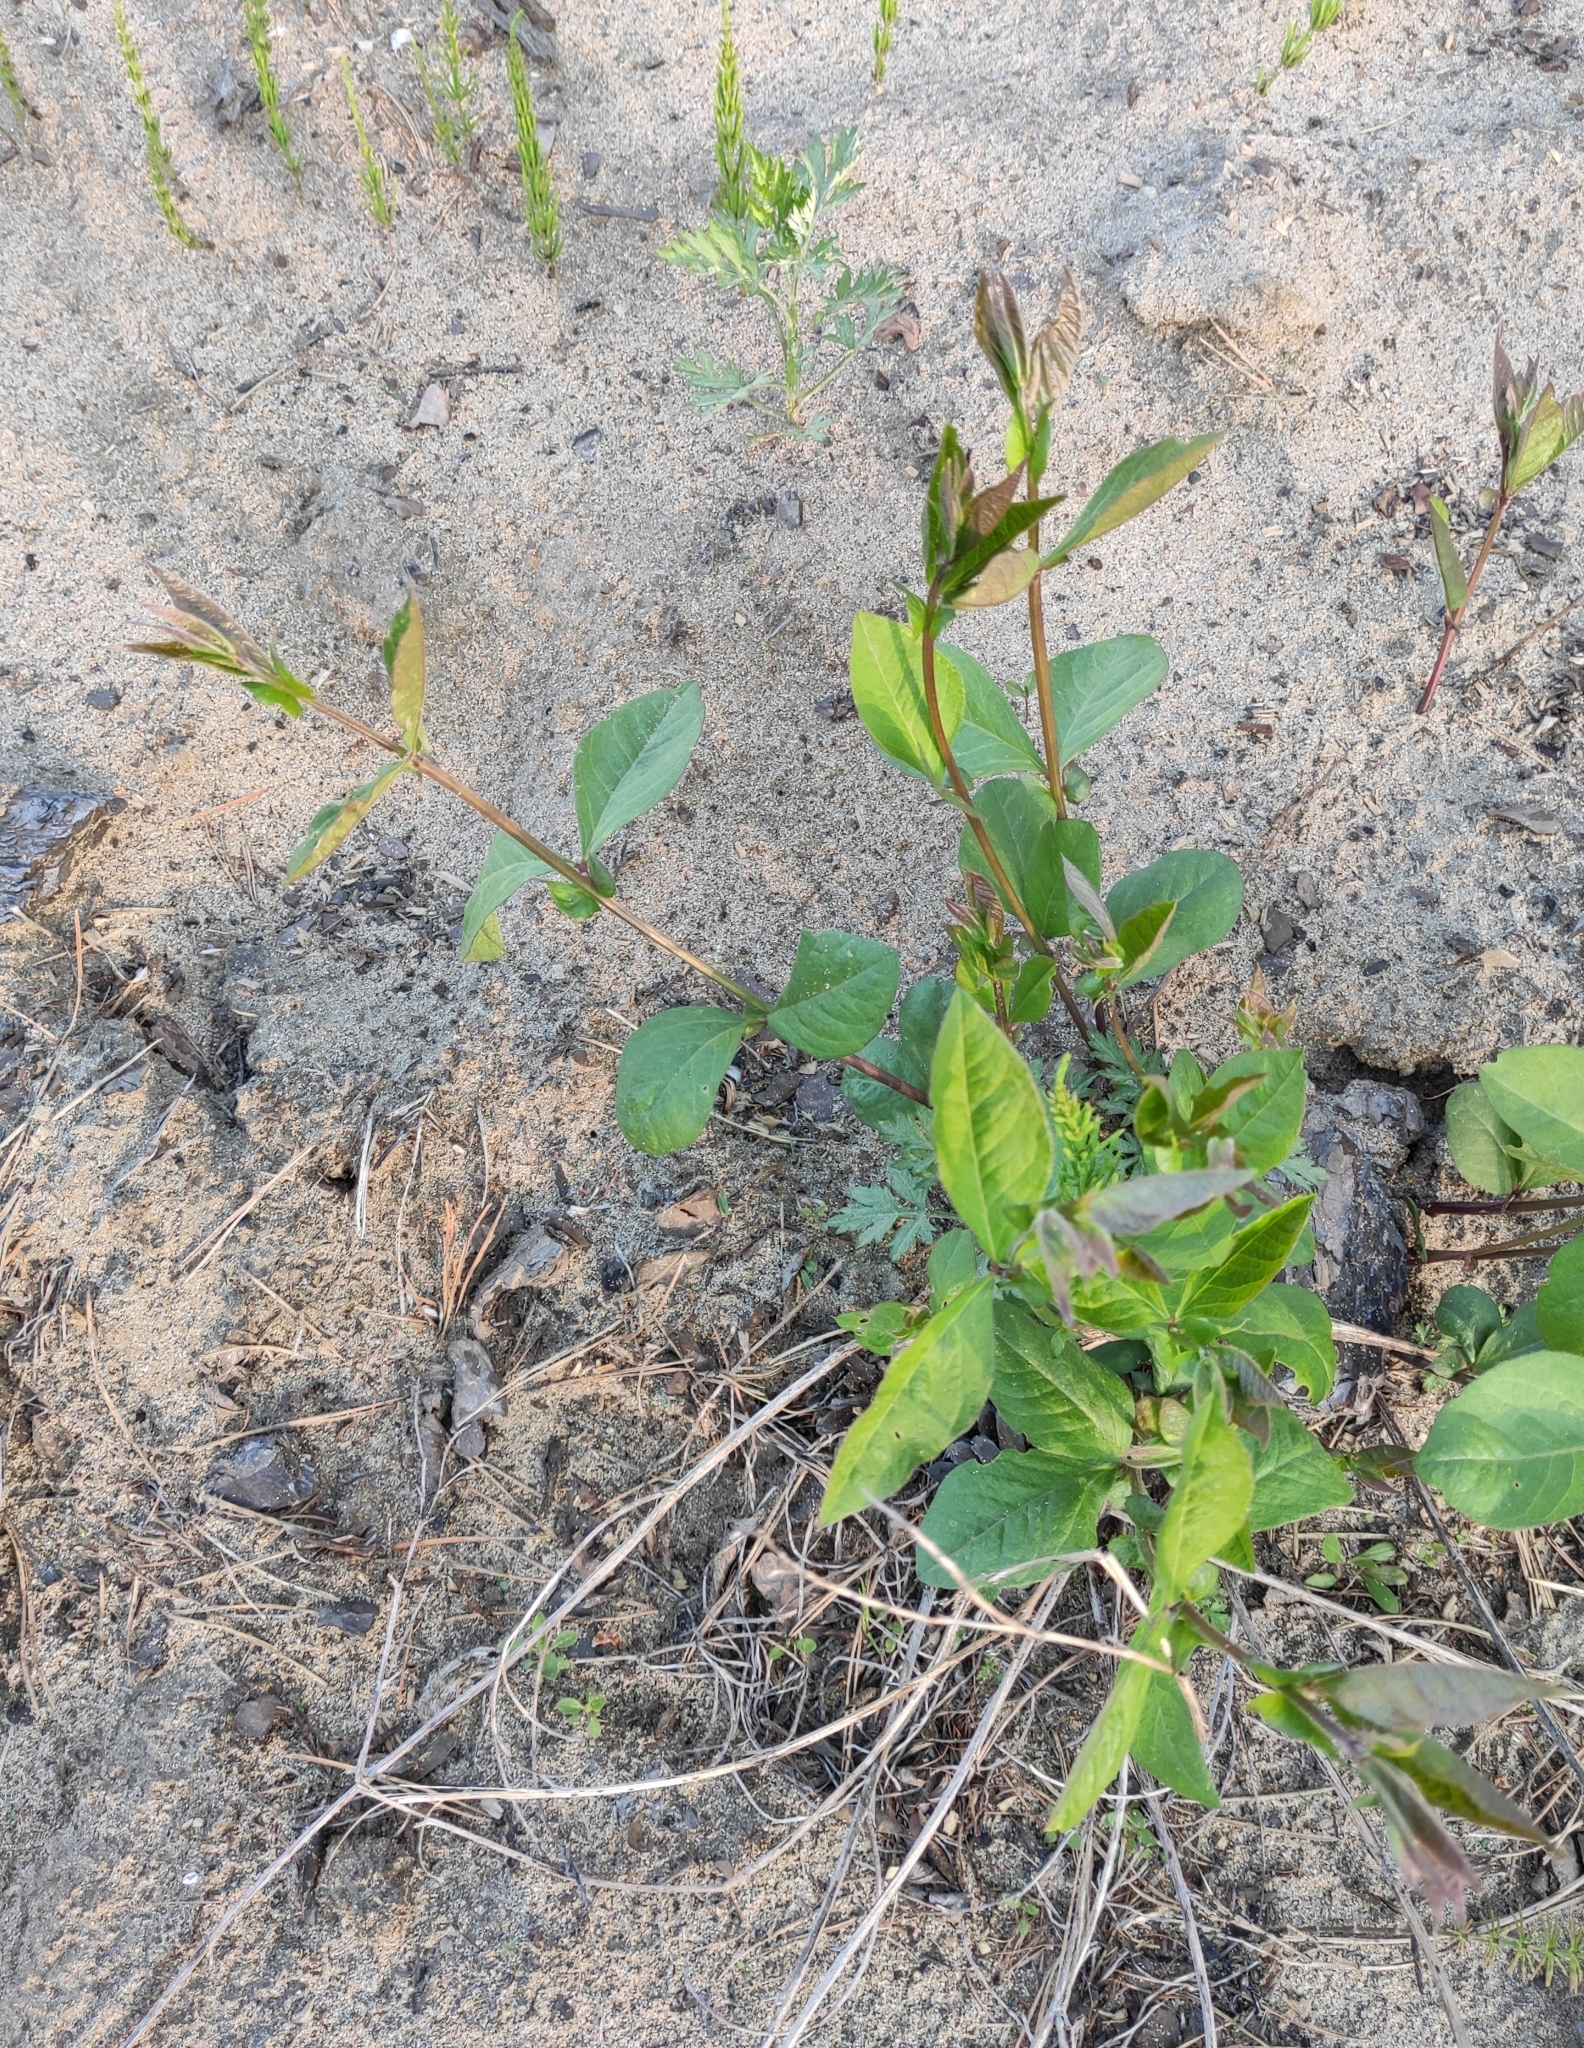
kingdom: Plantae
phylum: Tracheophyta
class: Magnoliopsida
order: Fabales
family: Fabaceae
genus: Vicia
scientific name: Vicia unijuga
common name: Two-leaf vetch
